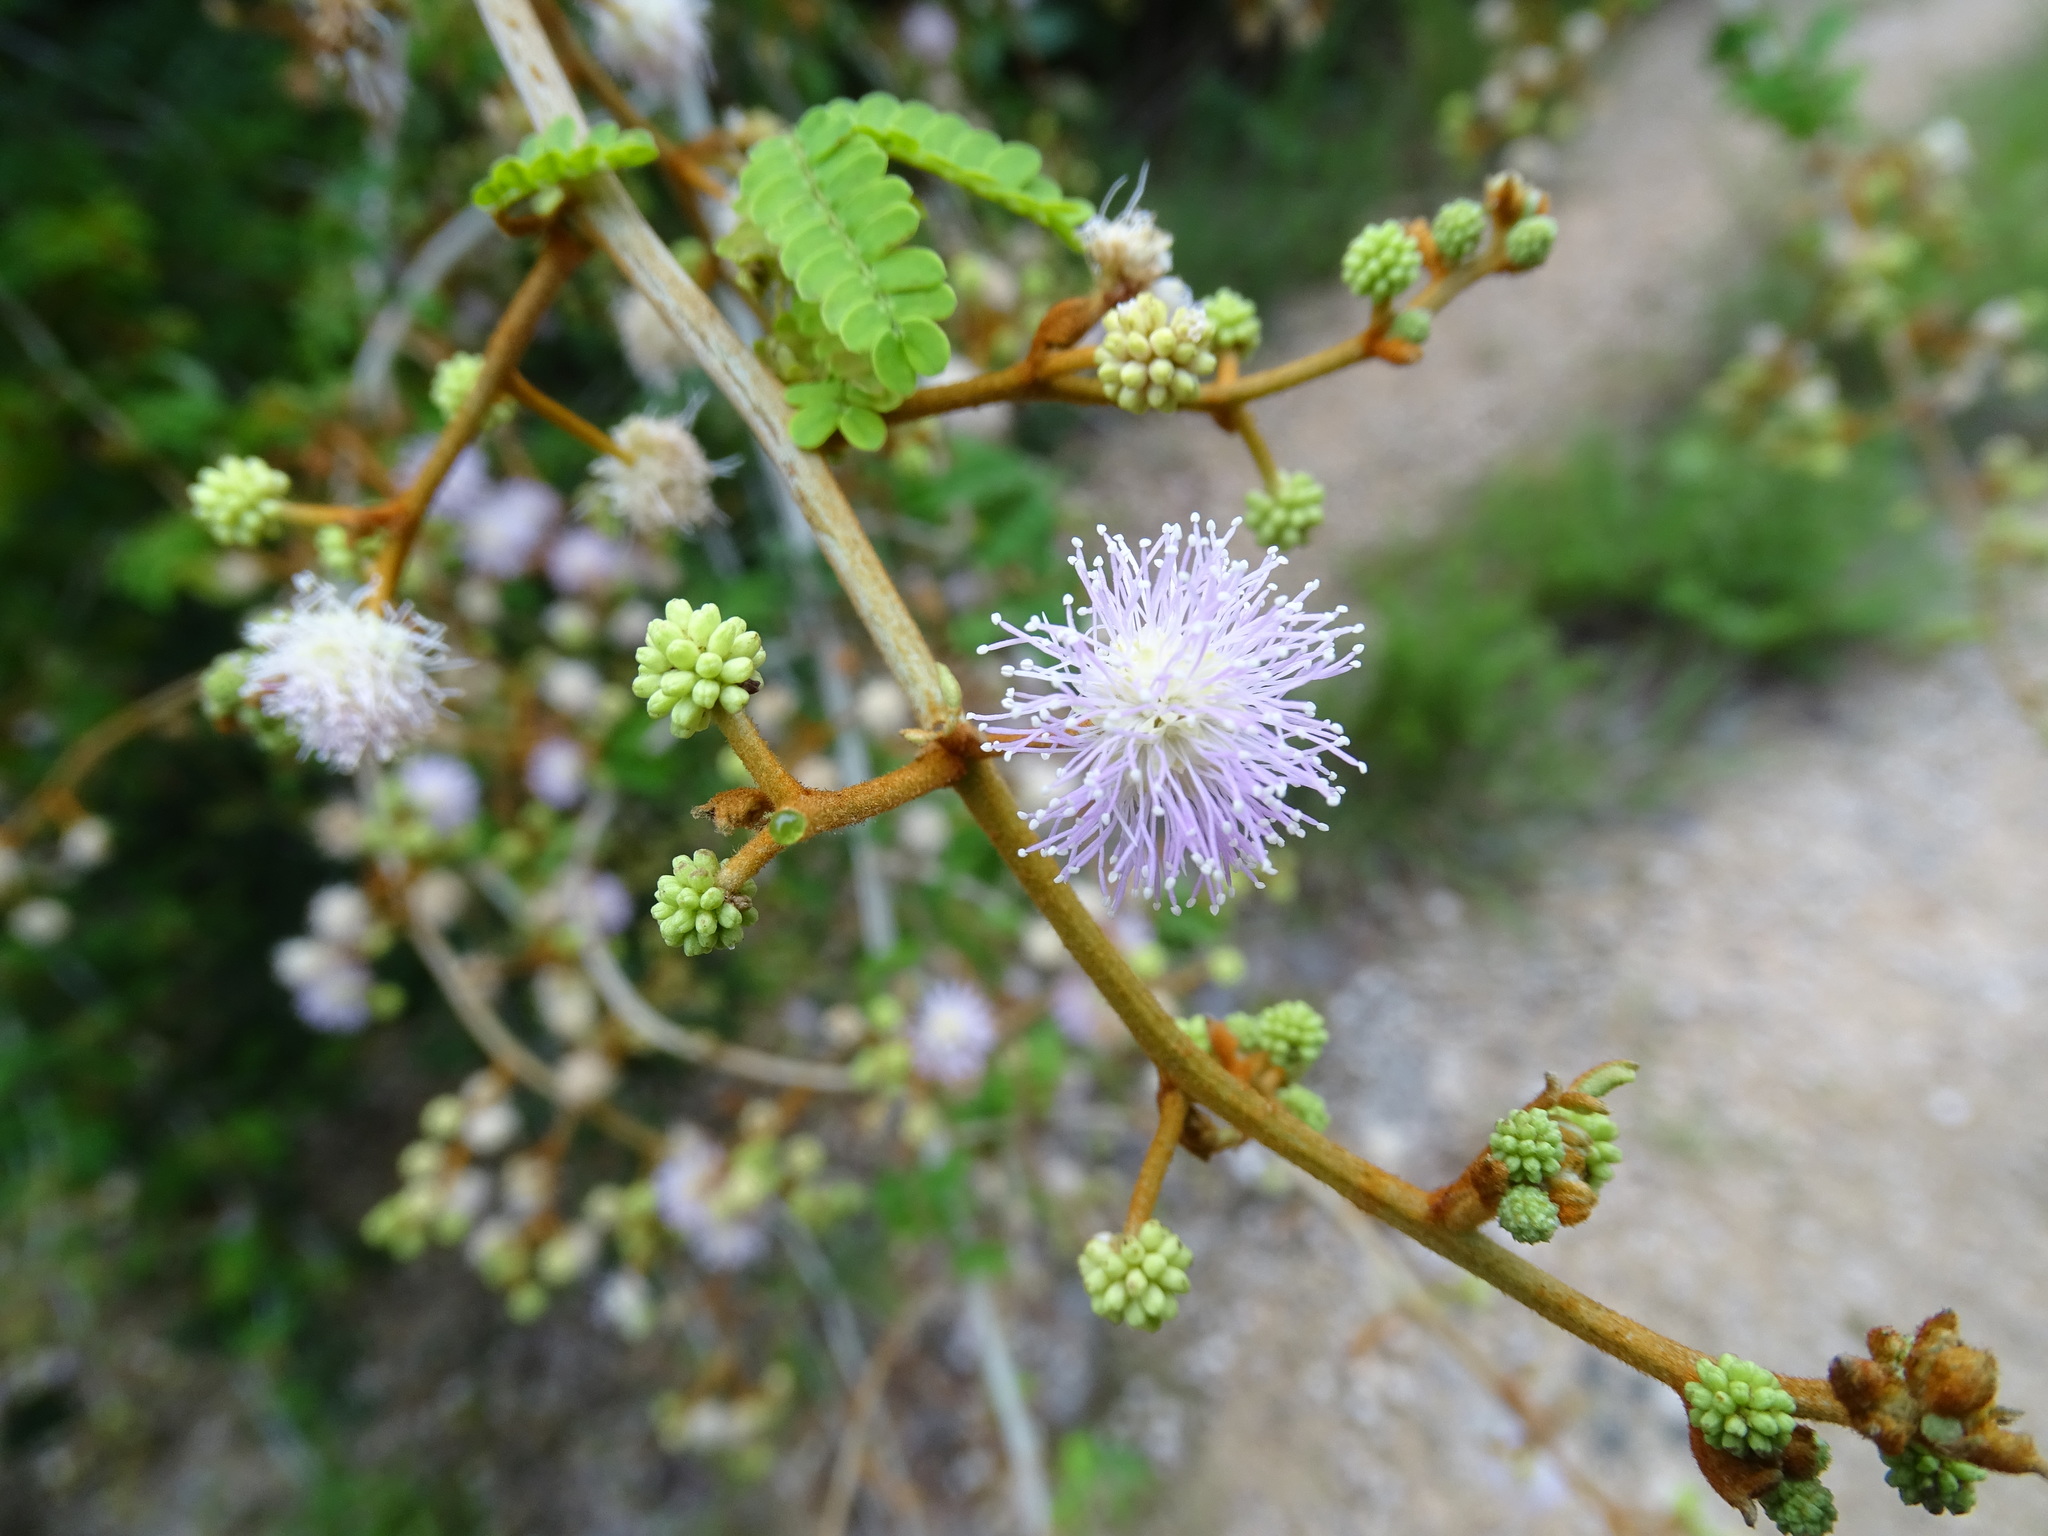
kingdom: Plantae
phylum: Tracheophyta
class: Magnoliopsida
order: Fabales
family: Fabaceae
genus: Mimosa
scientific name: Mimosa bahamensis
